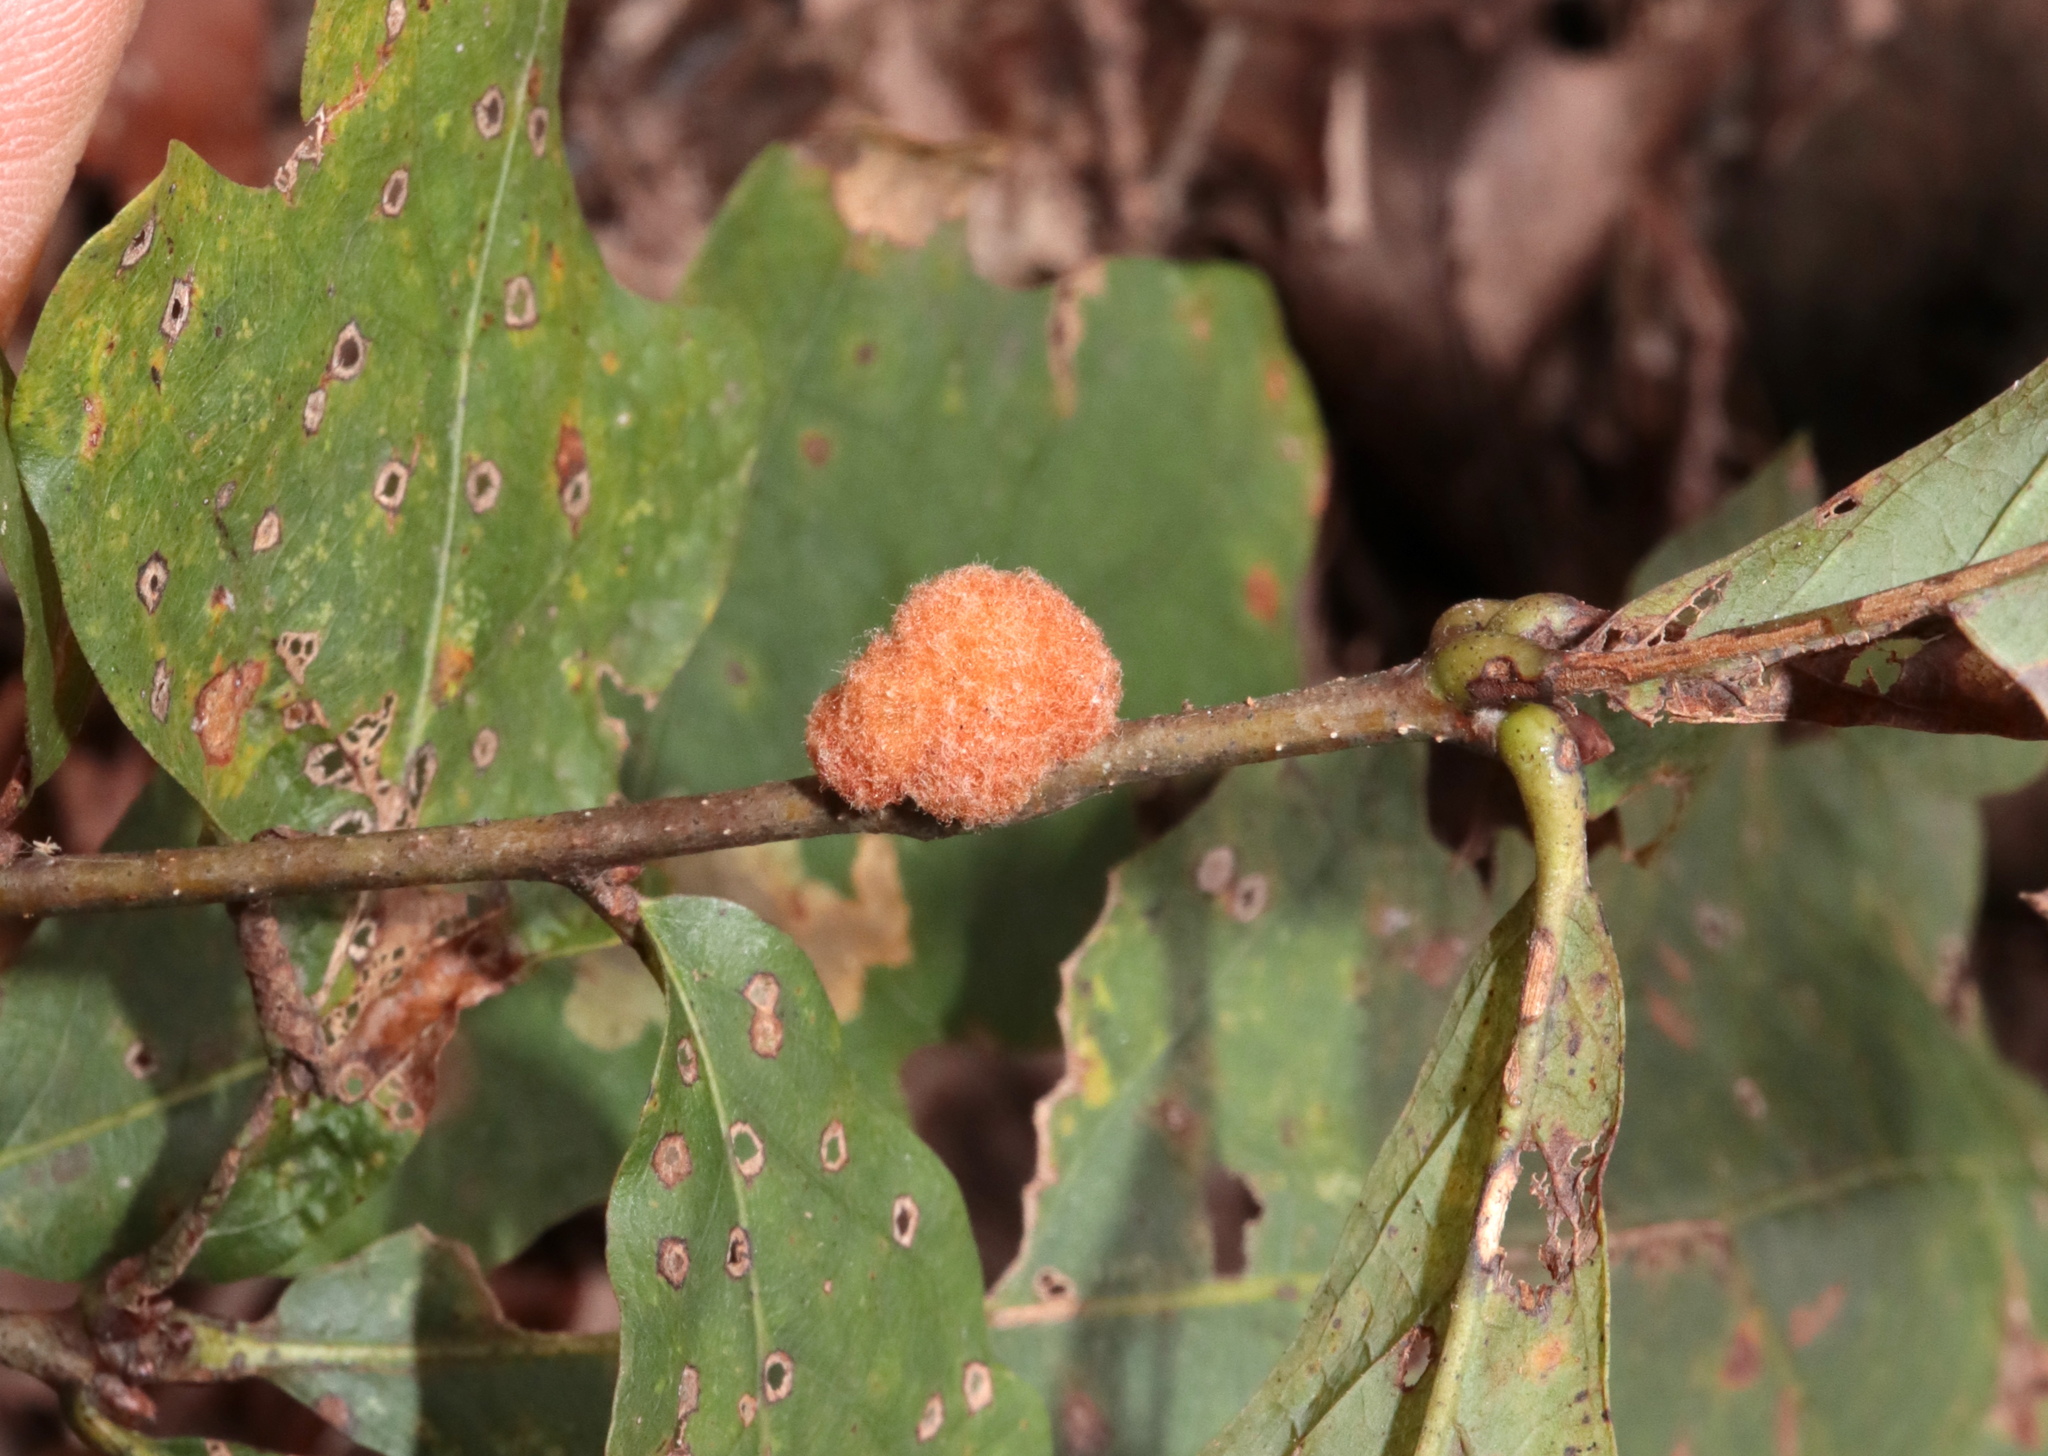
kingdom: Animalia
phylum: Arthropoda
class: Insecta
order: Hymenoptera
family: Cynipidae
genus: Andricus
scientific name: Andricus quercusflocci
